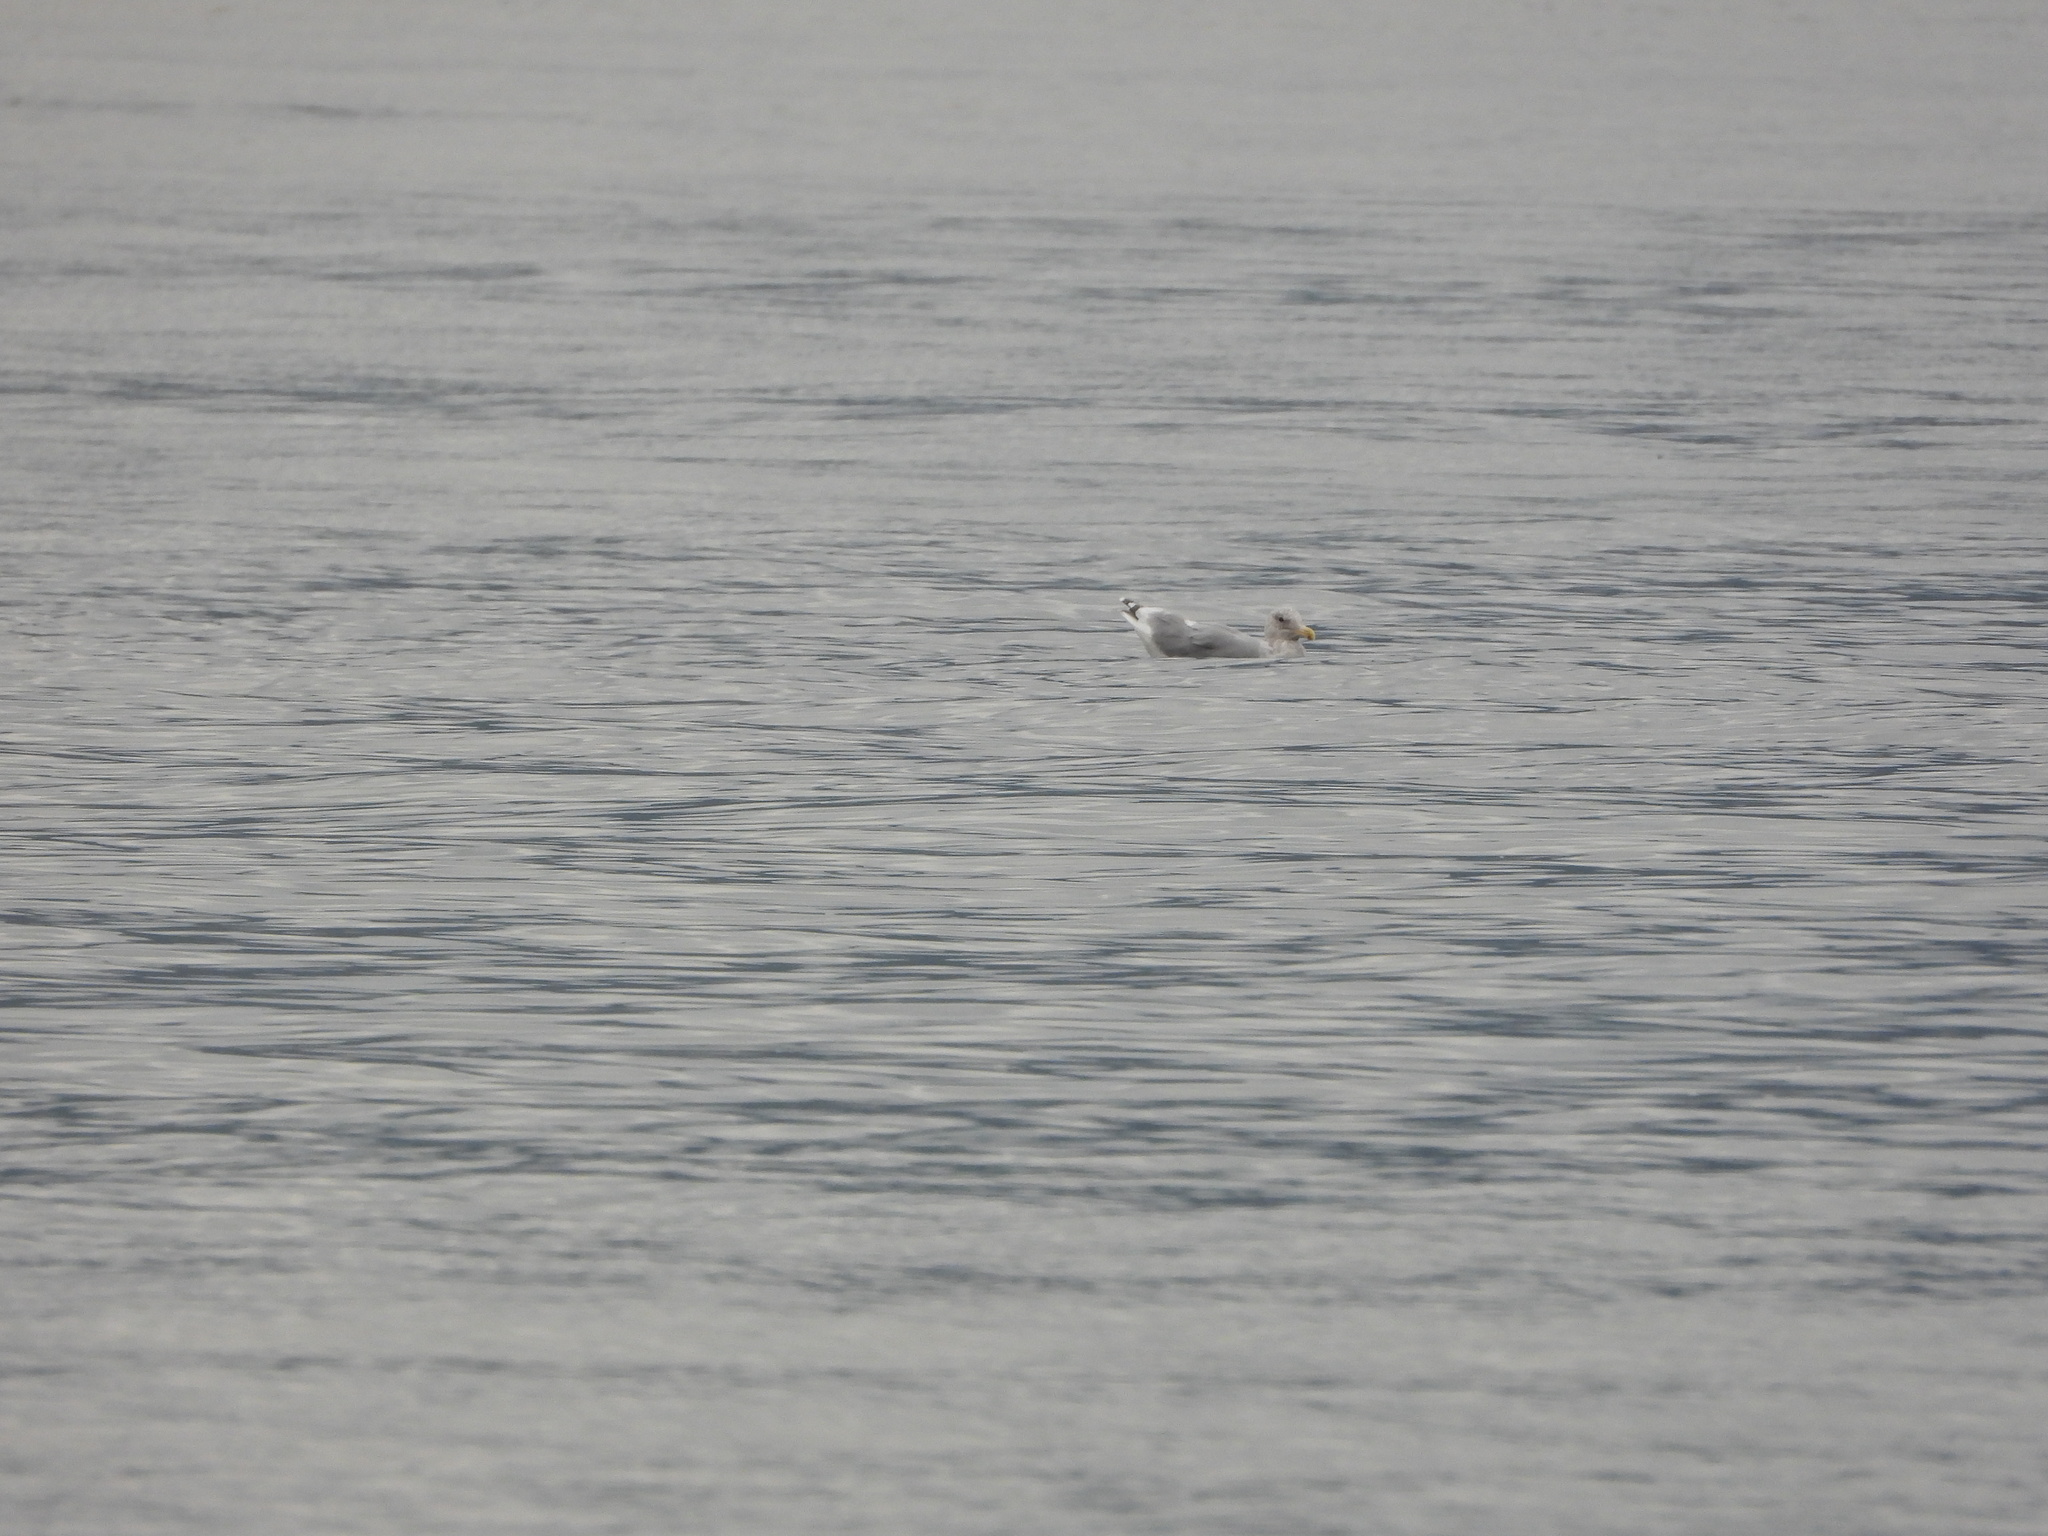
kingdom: Animalia
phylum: Chordata
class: Aves
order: Charadriiformes
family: Laridae
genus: Larus
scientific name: Larus
